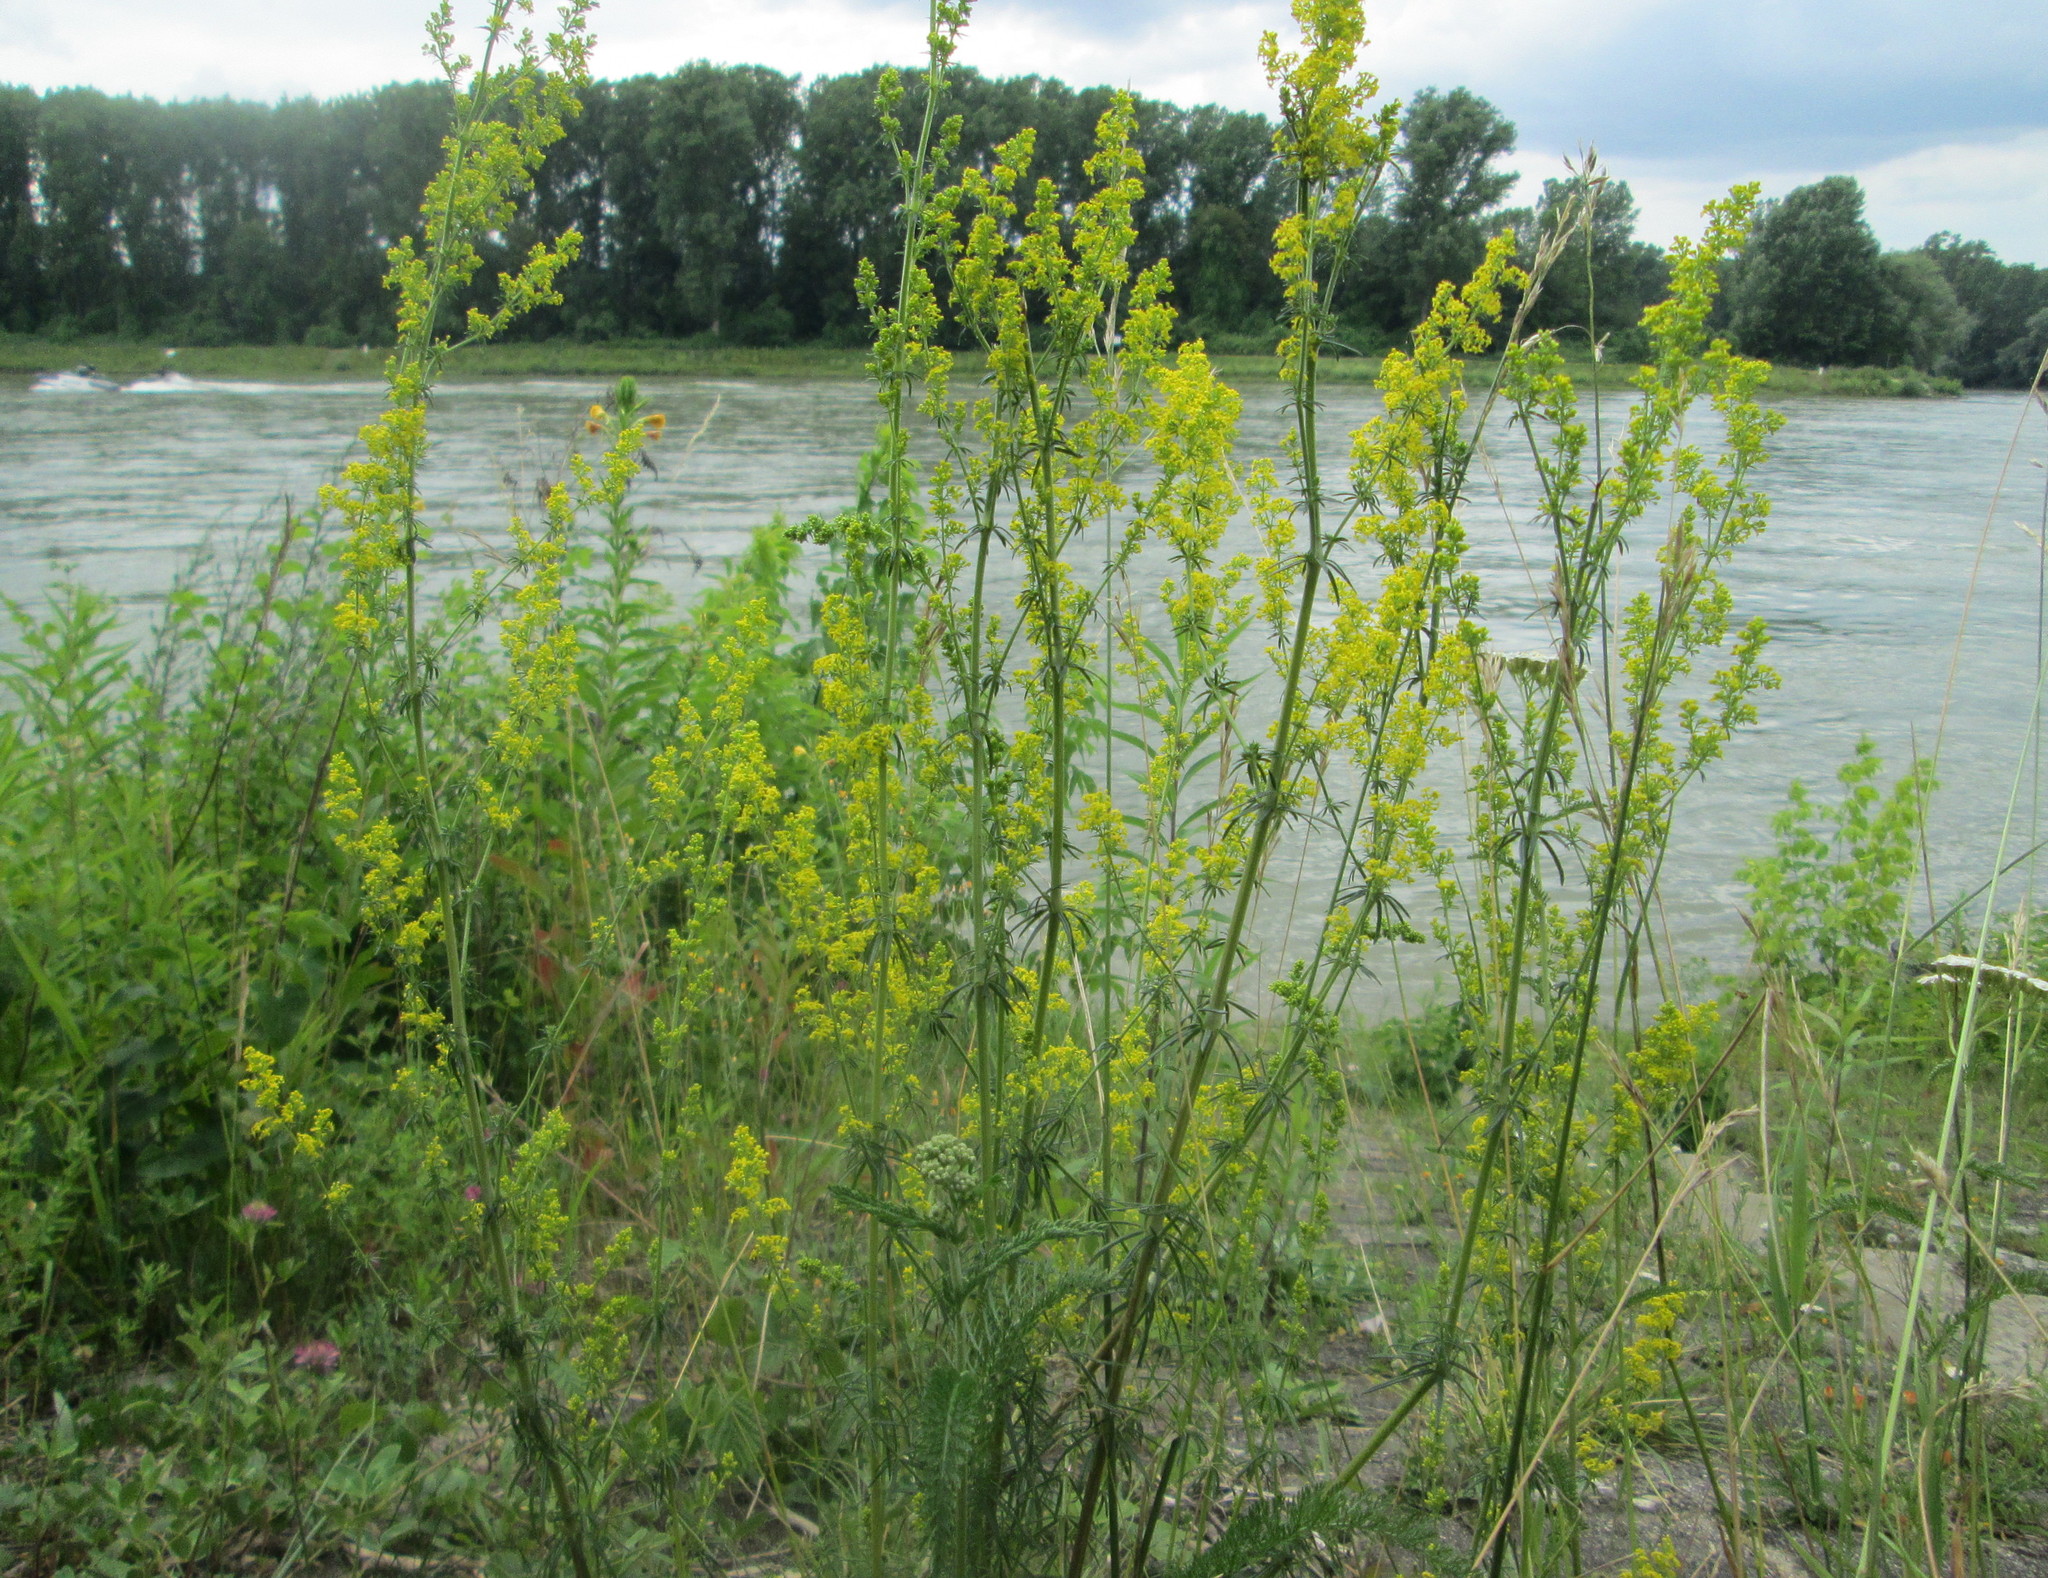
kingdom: Plantae
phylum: Tracheophyta
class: Magnoliopsida
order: Gentianales
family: Rubiaceae
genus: Galium
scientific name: Galium verum
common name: Lady's bedstraw
